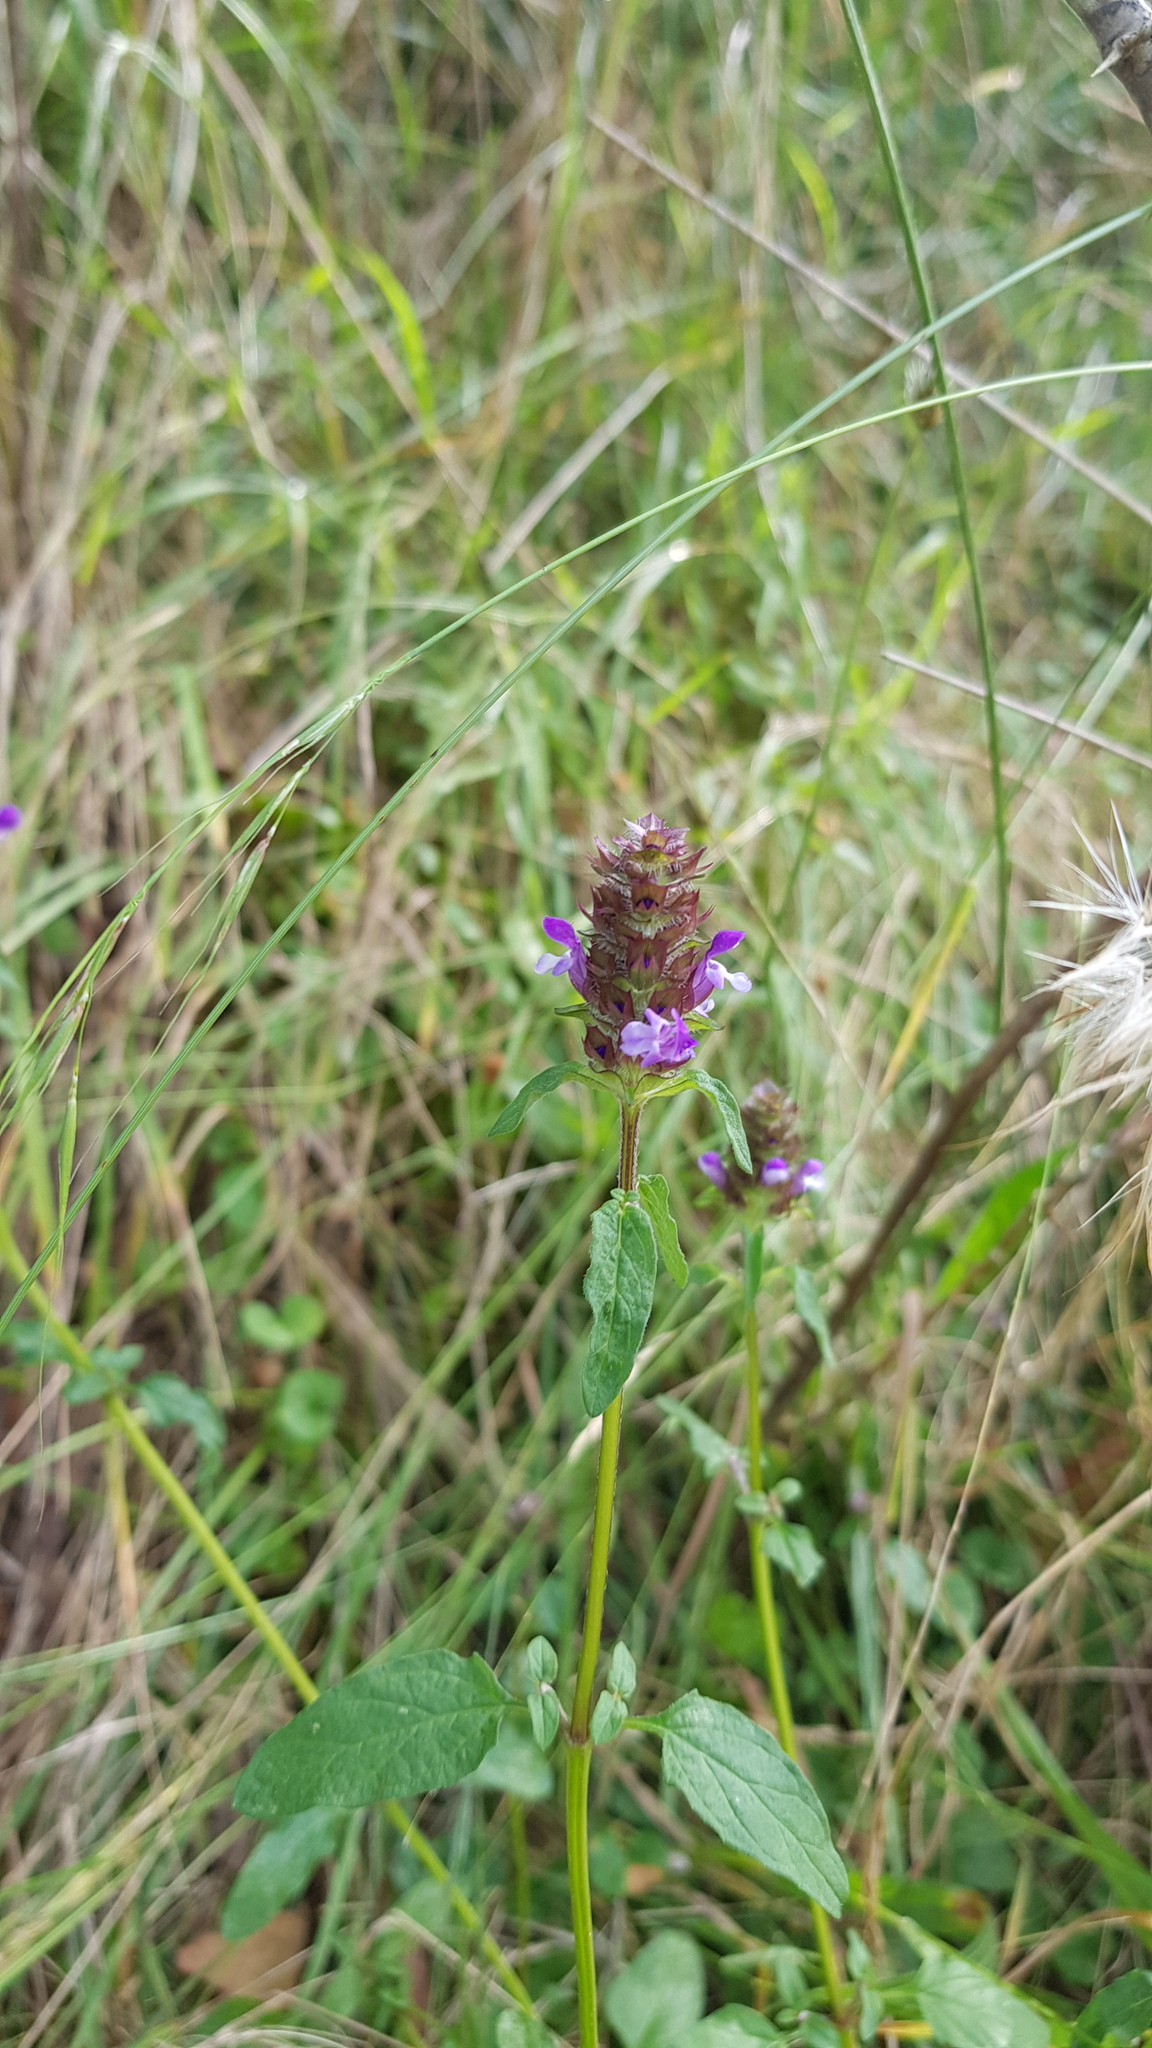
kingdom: Plantae
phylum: Tracheophyta
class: Magnoliopsida
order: Lamiales
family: Lamiaceae
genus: Prunella
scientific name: Prunella vulgaris
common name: Heal-all
